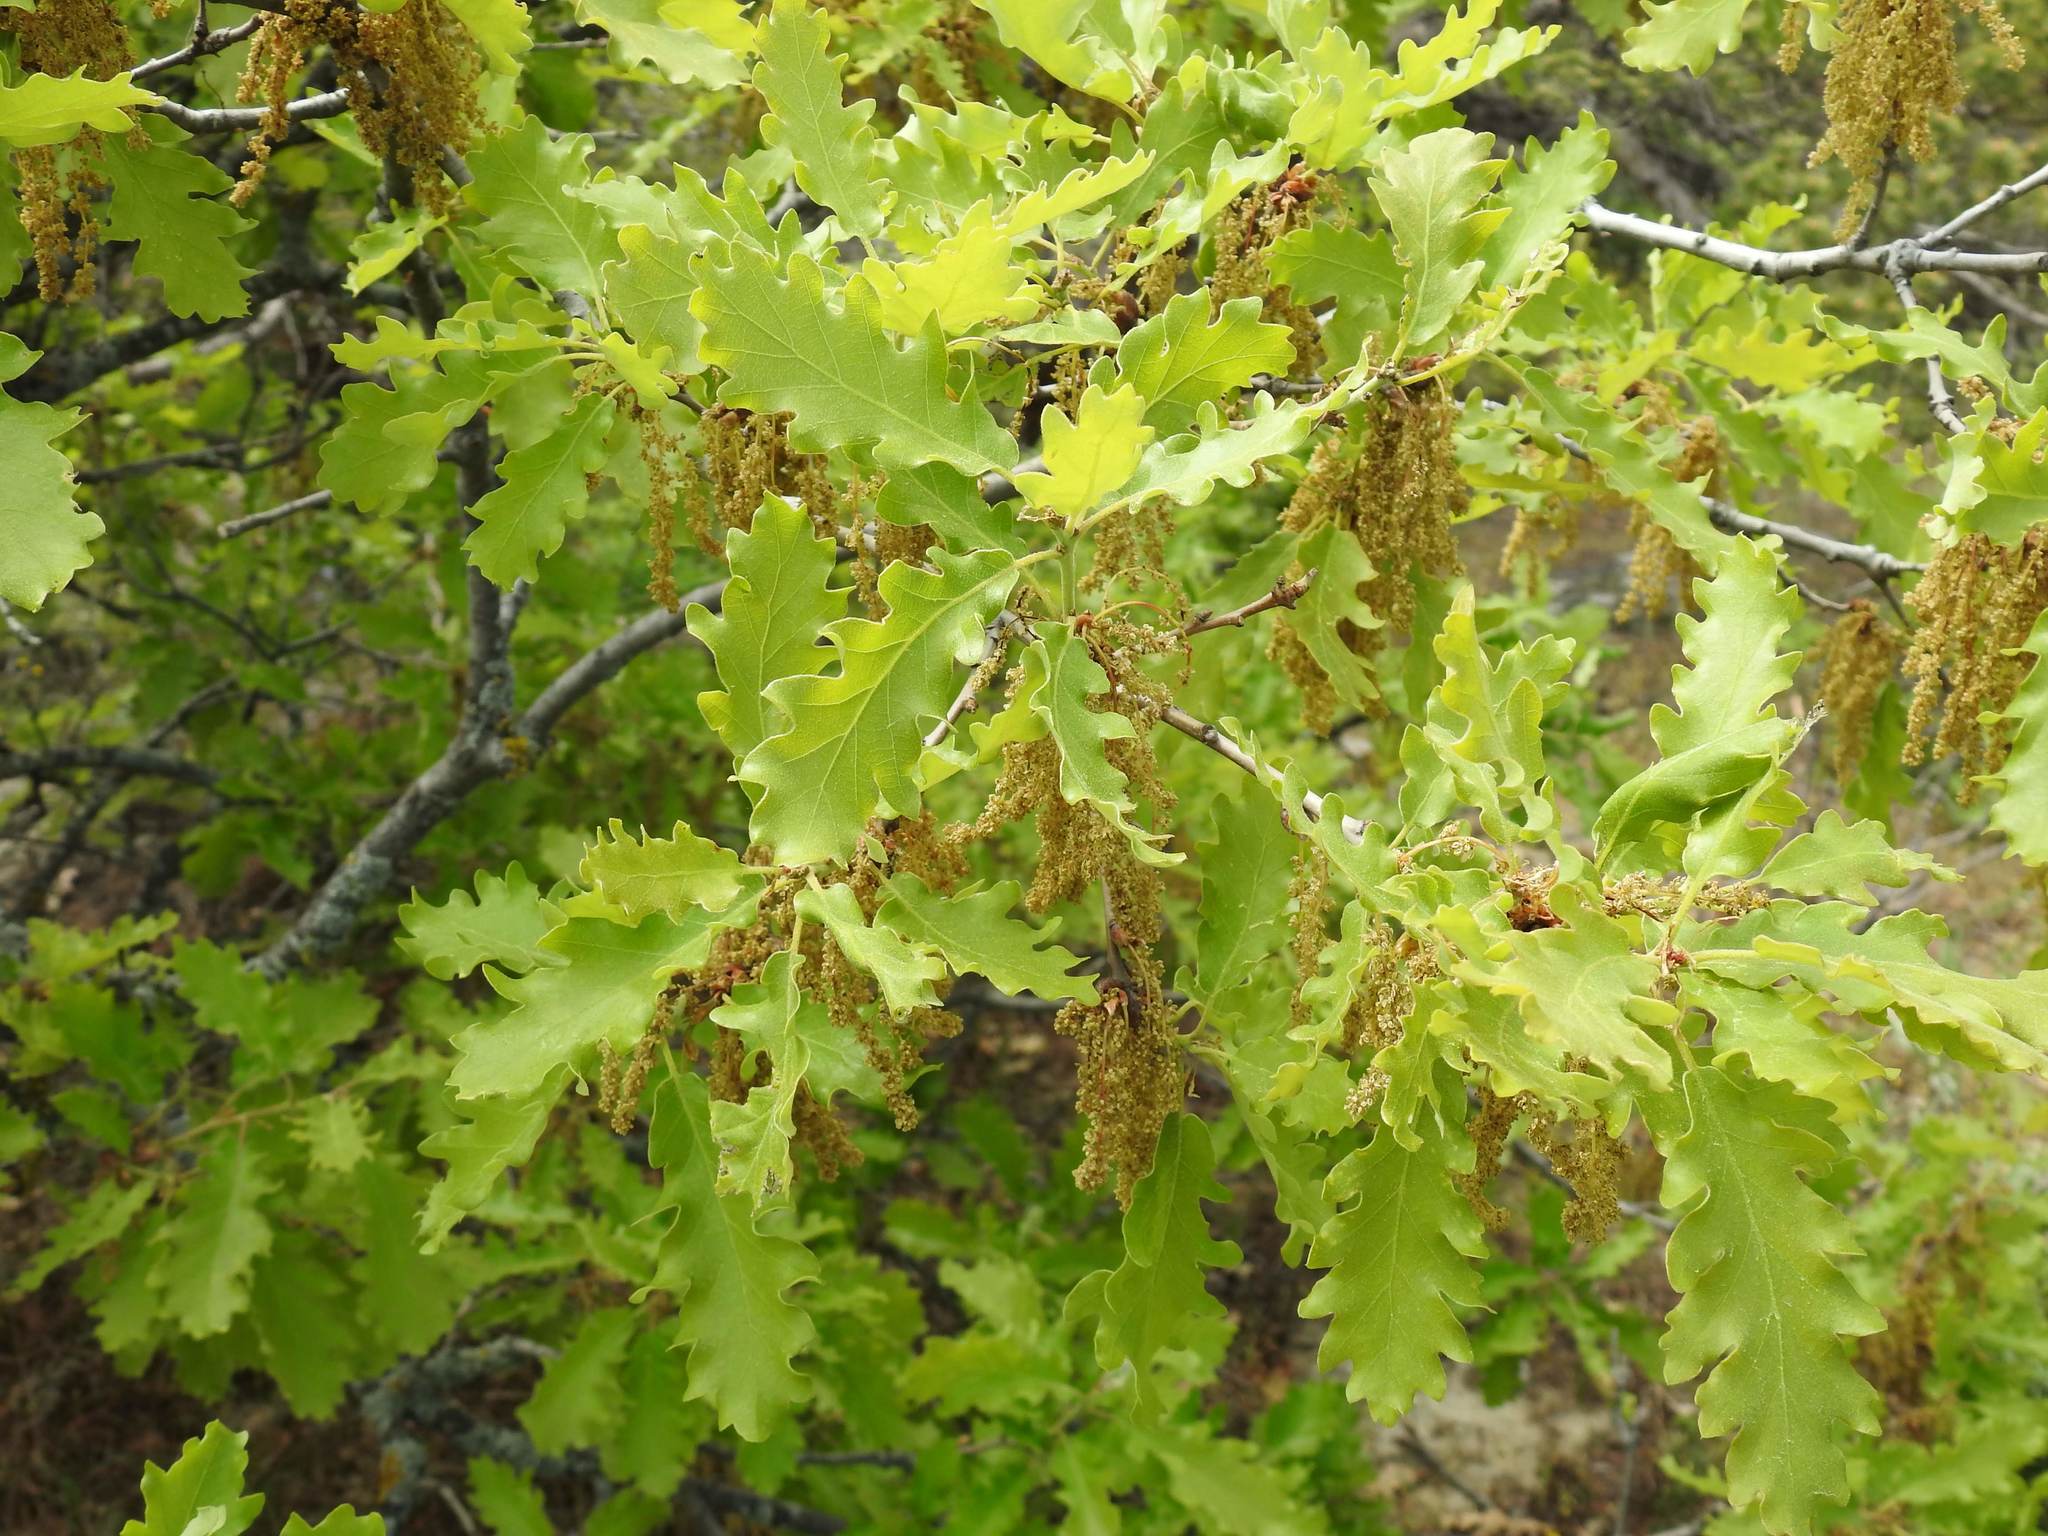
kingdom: Plantae
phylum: Tracheophyta
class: Magnoliopsida
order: Fagales
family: Fagaceae
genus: Quercus
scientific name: Quercus robur
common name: Pedunculate oak
